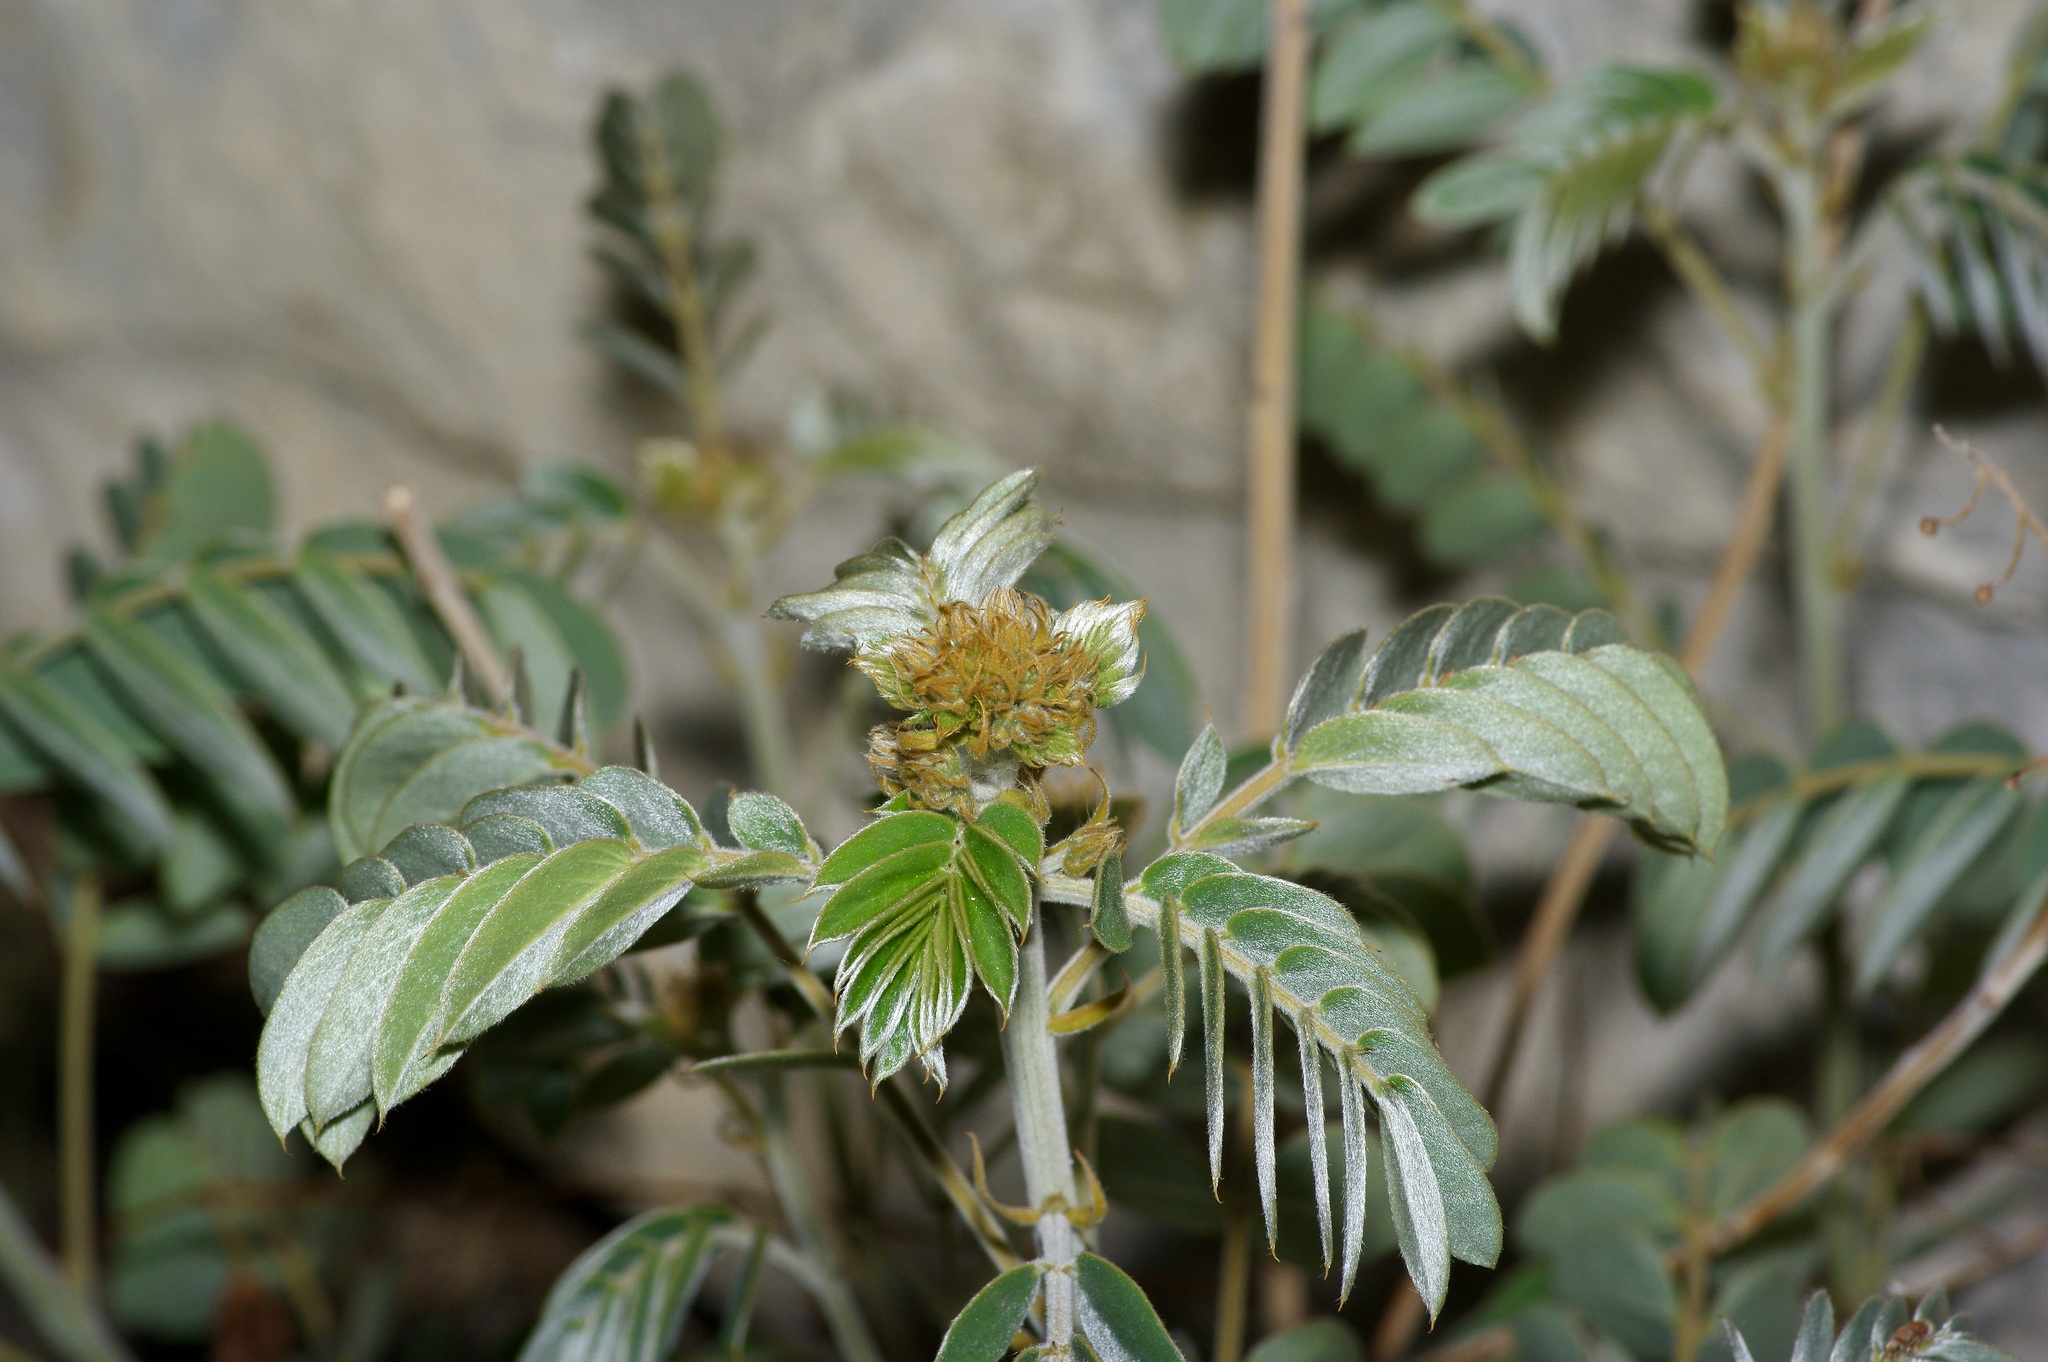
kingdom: Plantae
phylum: Tracheophyta
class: Magnoliopsida
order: Fabales
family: Fabaceae
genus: Senna
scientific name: Senna lindheimeriana
